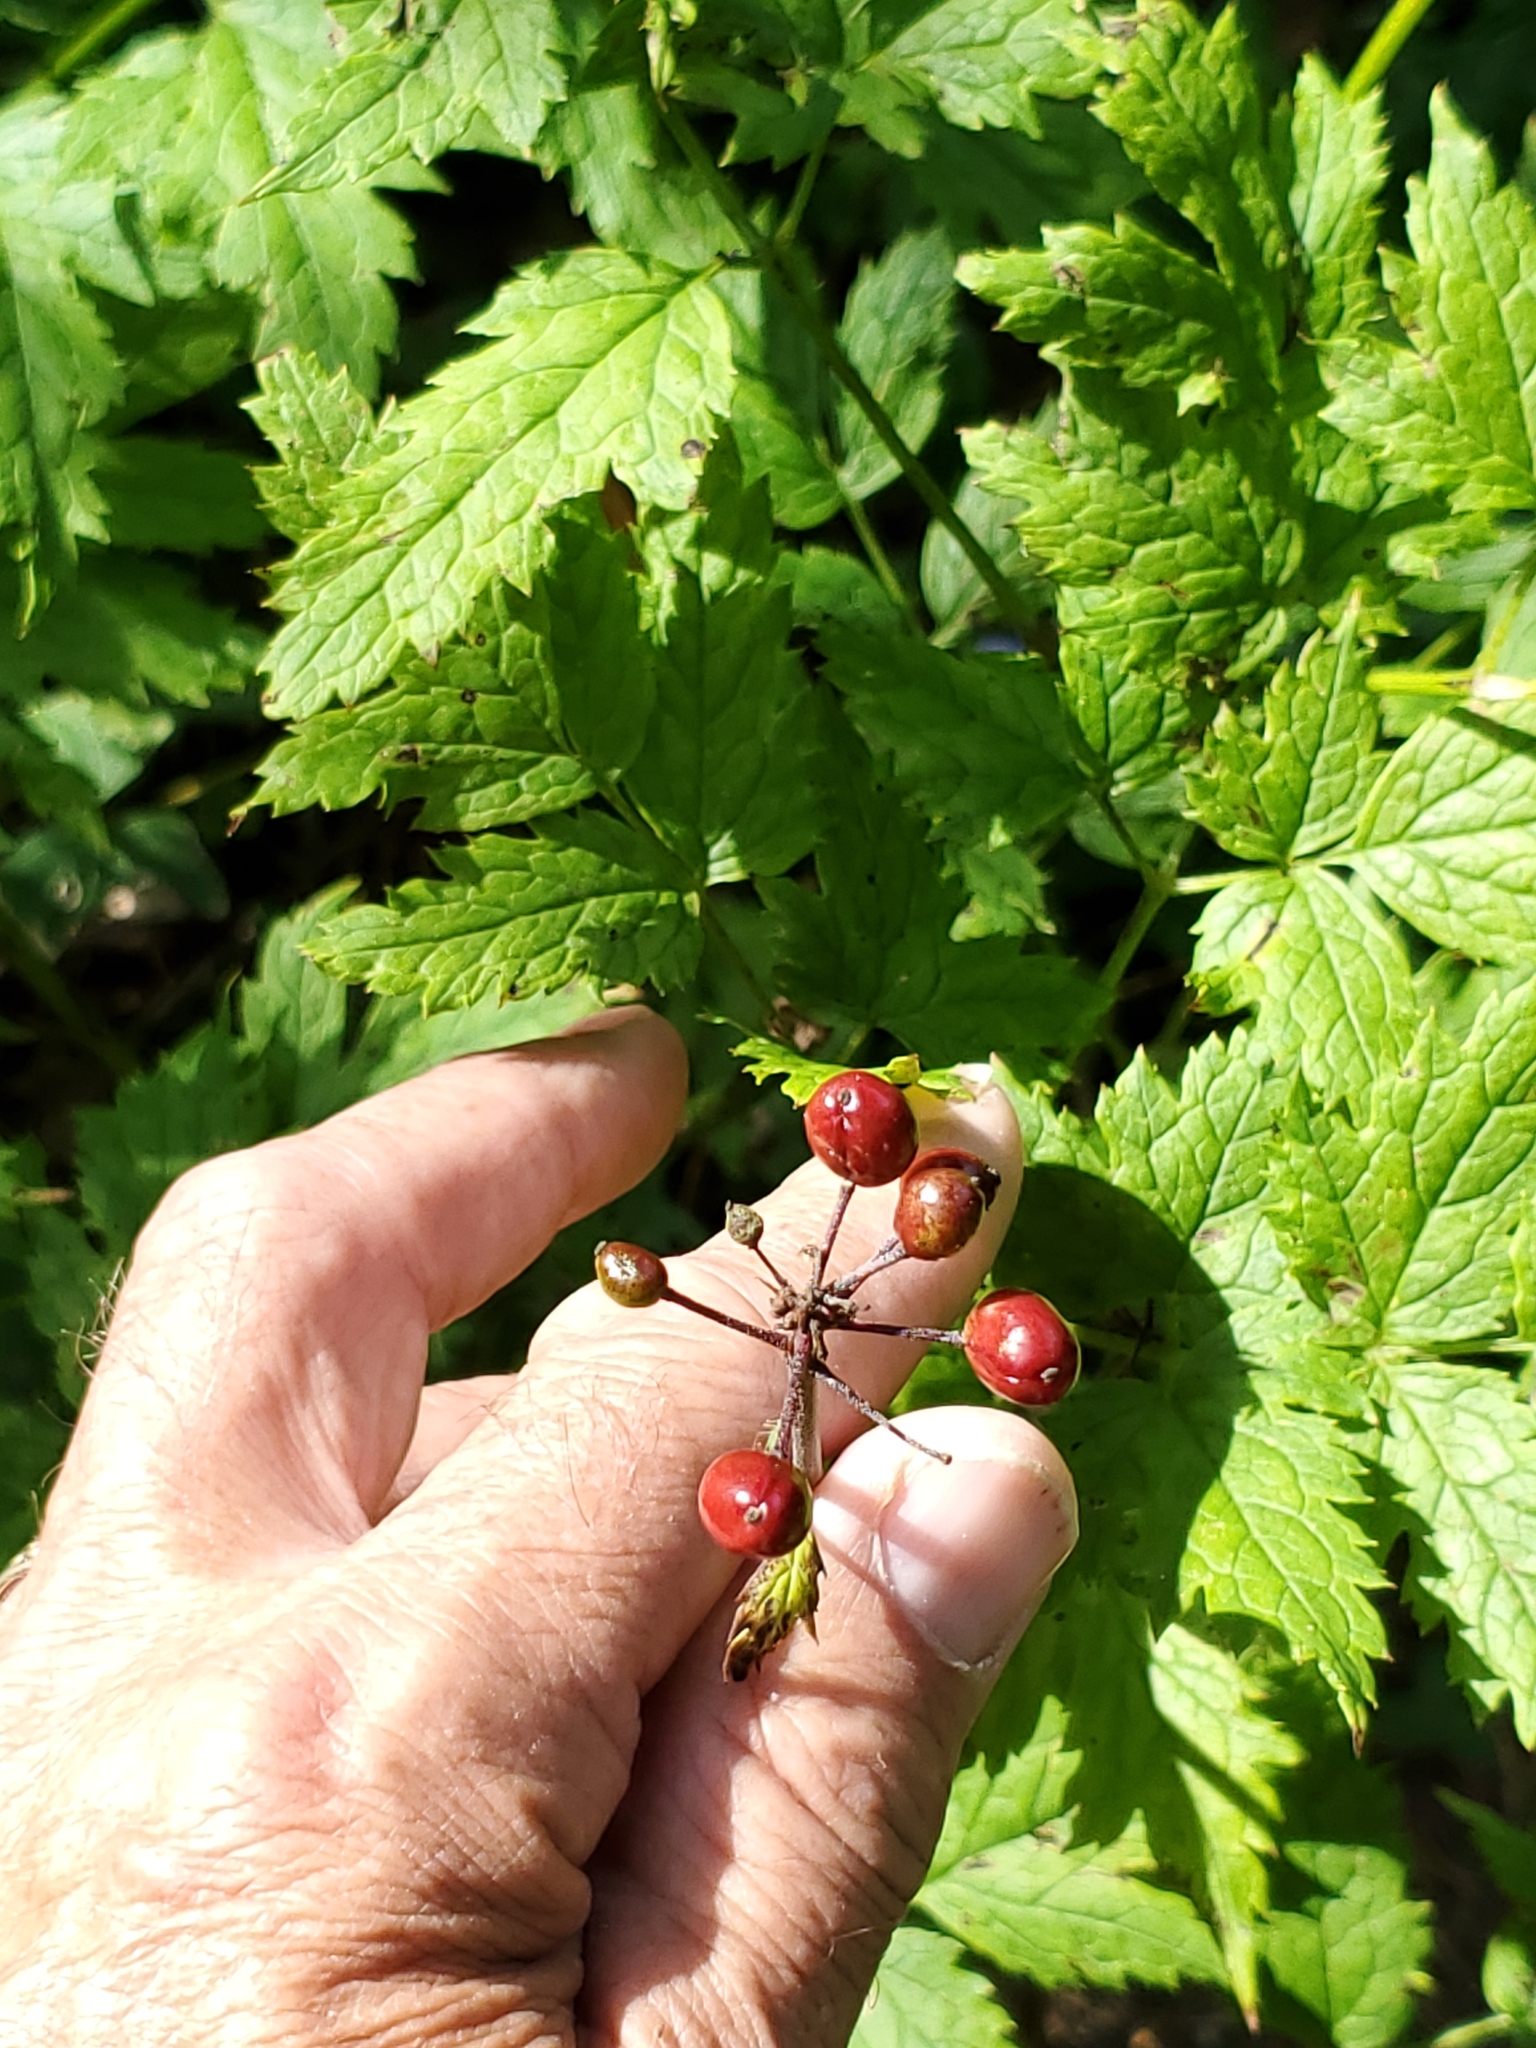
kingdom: Plantae
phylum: Tracheophyta
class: Magnoliopsida
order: Ranunculales
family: Ranunculaceae
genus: Actaea
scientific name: Actaea rubra
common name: Red baneberry
